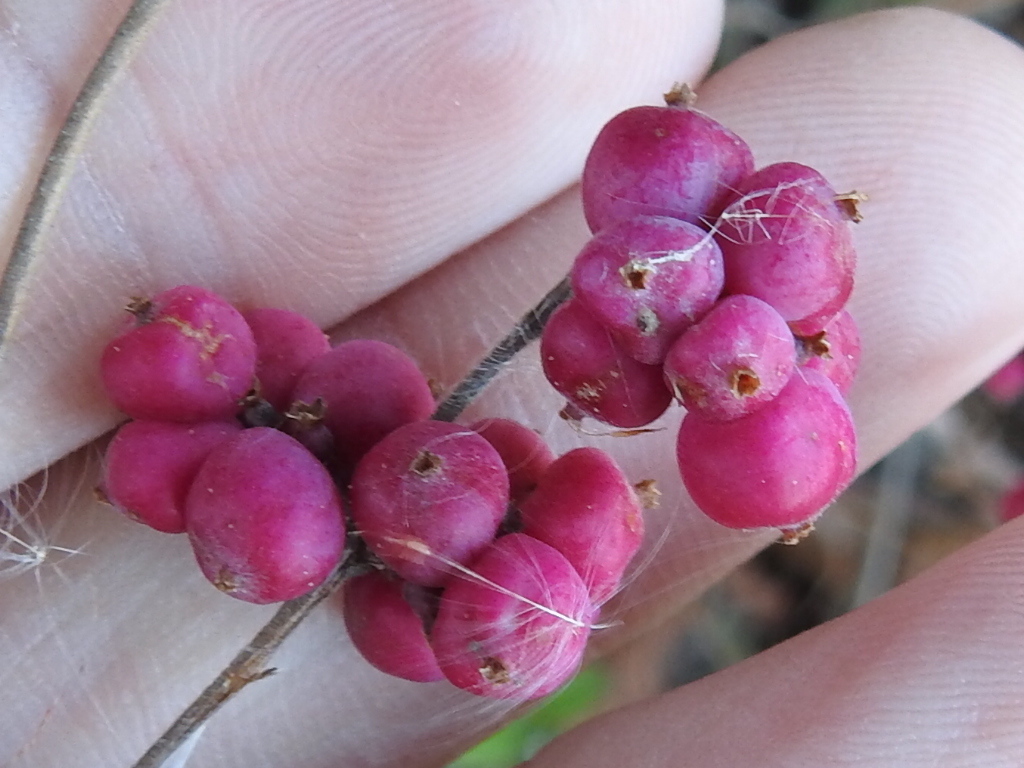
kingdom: Plantae
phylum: Tracheophyta
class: Magnoliopsida
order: Dipsacales
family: Caprifoliaceae
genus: Symphoricarpos
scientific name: Symphoricarpos orbiculatus
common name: Coralberry
